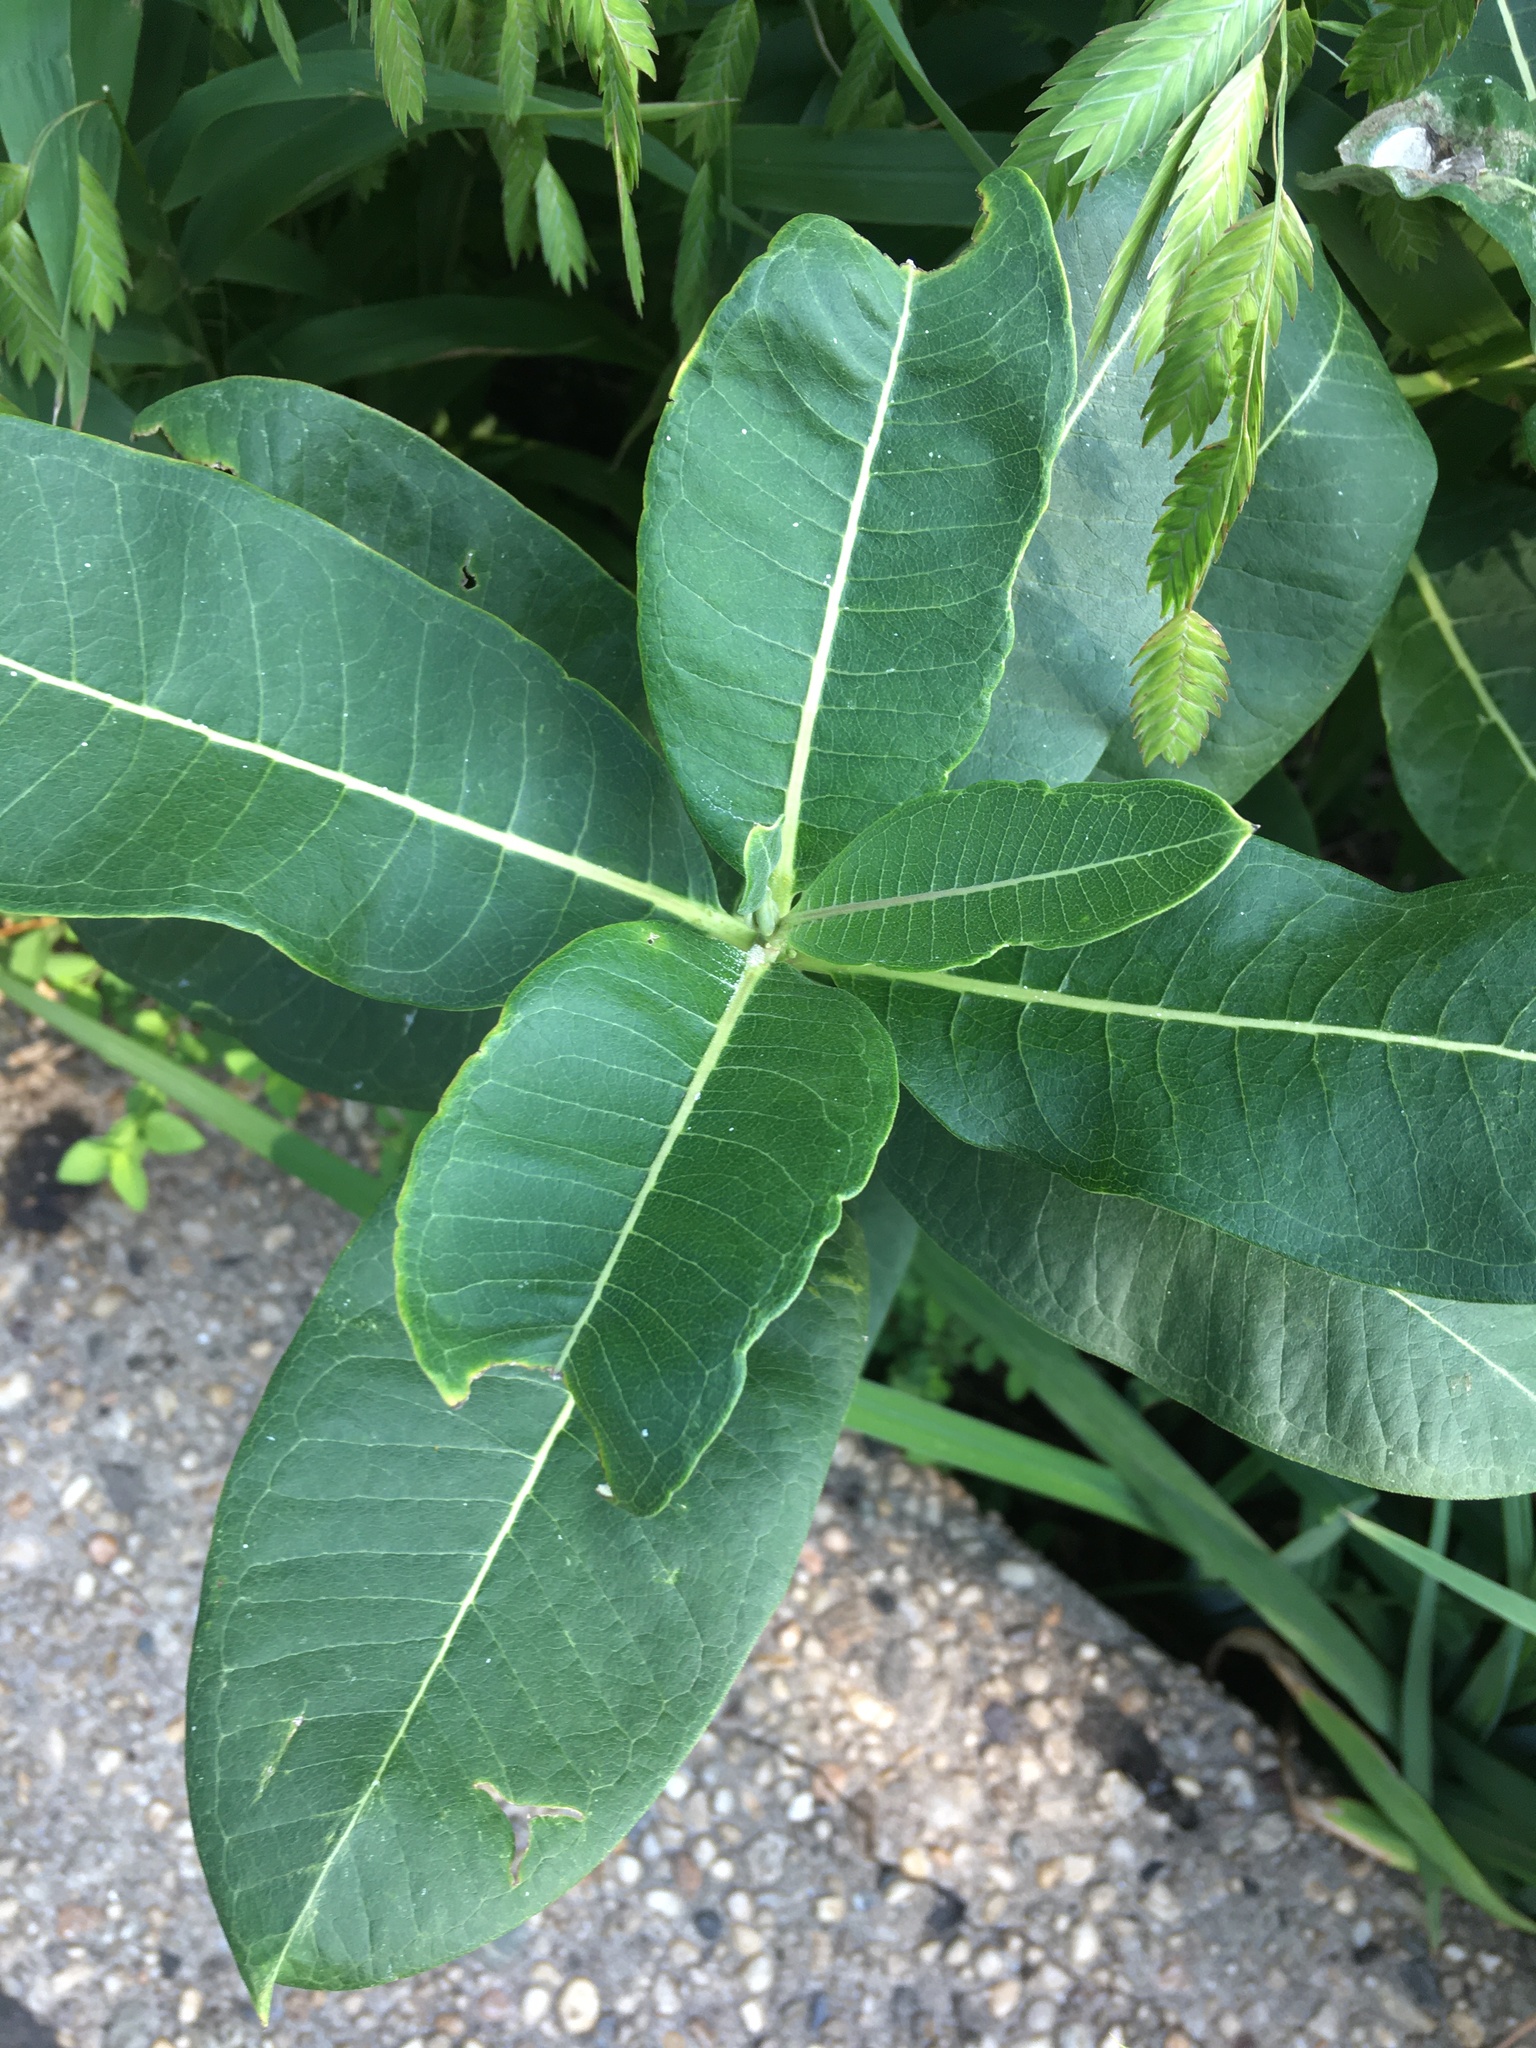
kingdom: Plantae
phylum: Tracheophyta
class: Magnoliopsida
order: Gentianales
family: Apocynaceae
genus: Asclepias
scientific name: Asclepias syriaca
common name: Common milkweed
